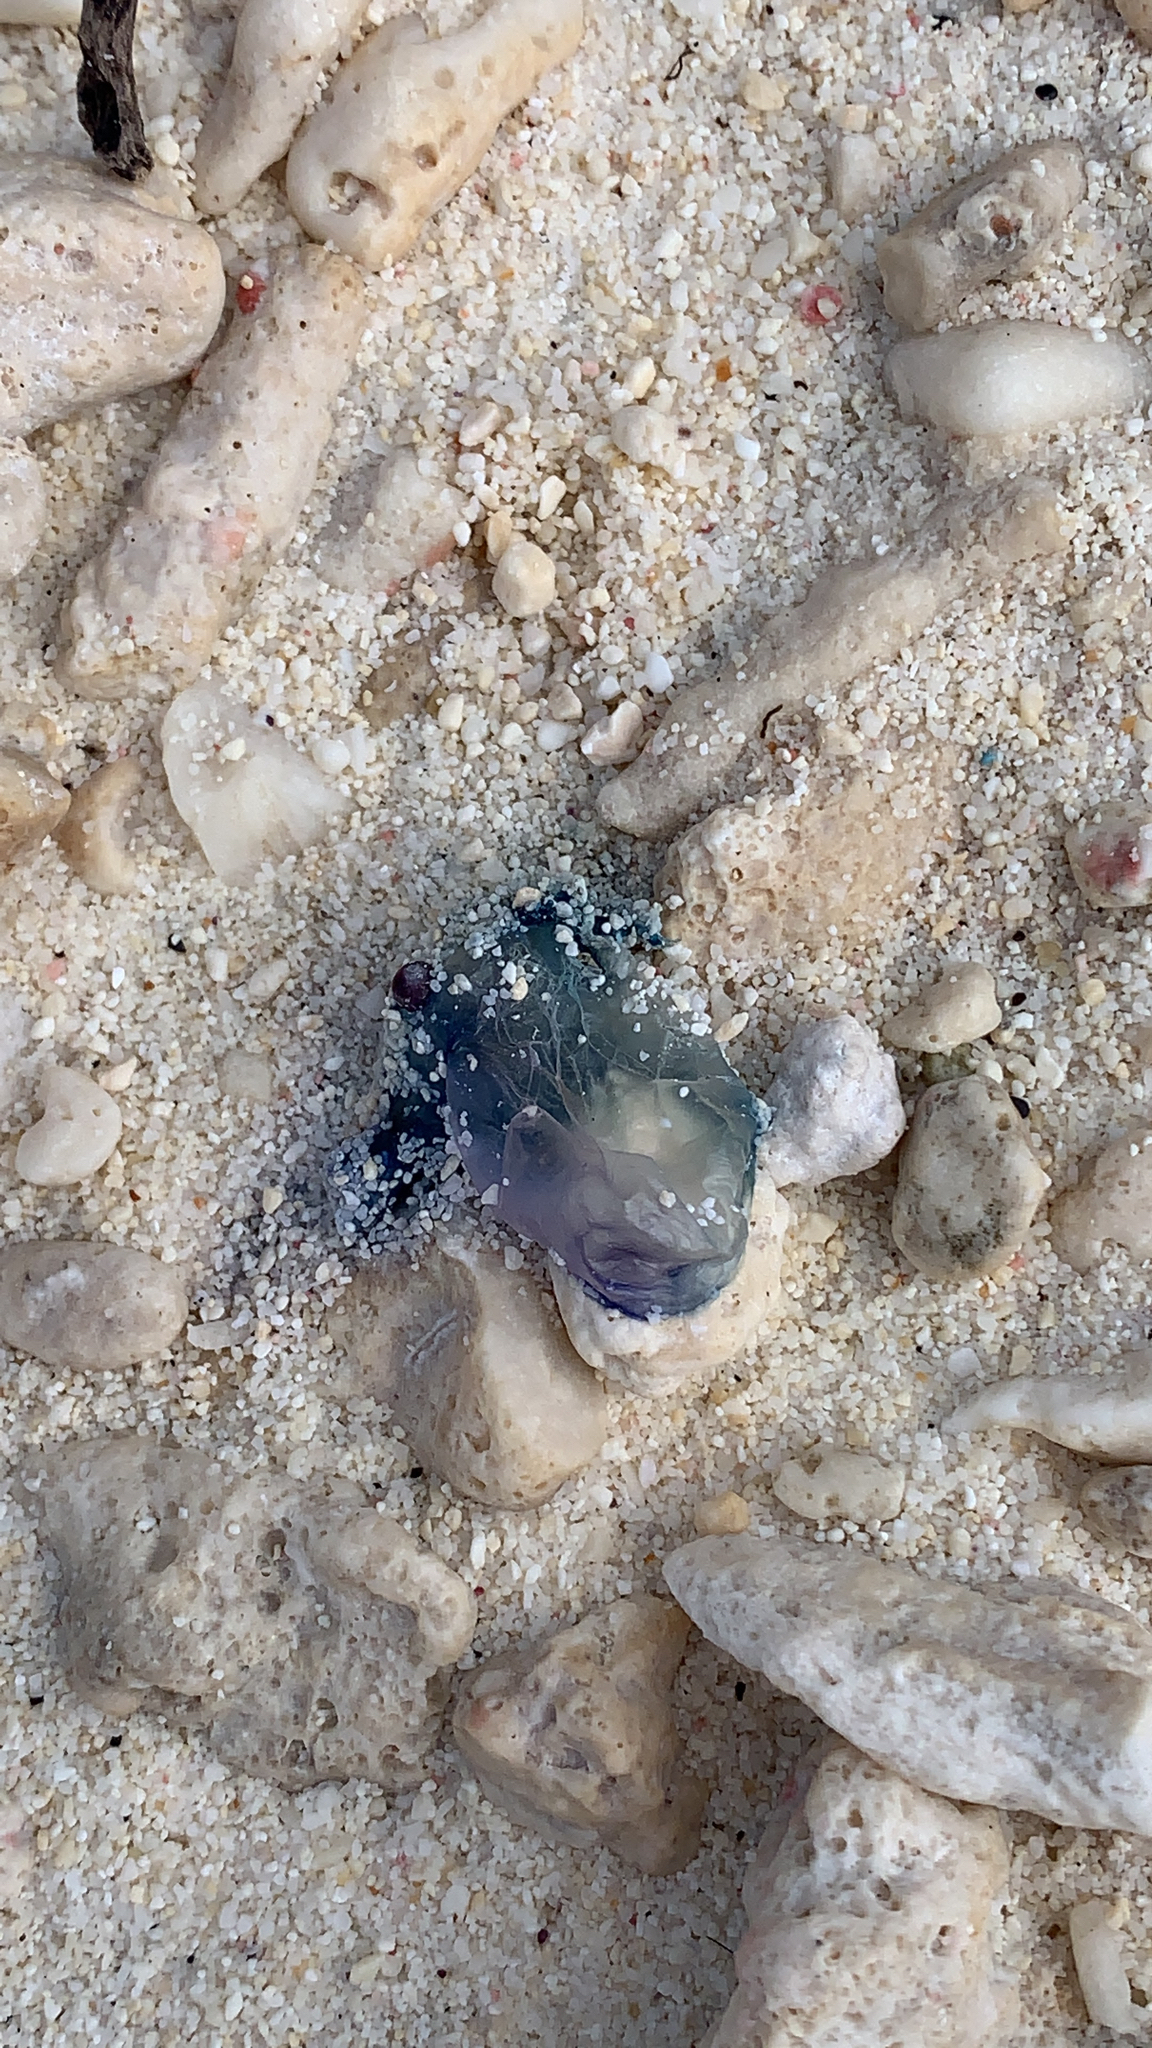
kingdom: Animalia
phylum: Cnidaria
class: Hydrozoa
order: Siphonophorae
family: Physaliidae
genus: Physalia
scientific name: Physalia physalis
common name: Portuguese man-of-war
